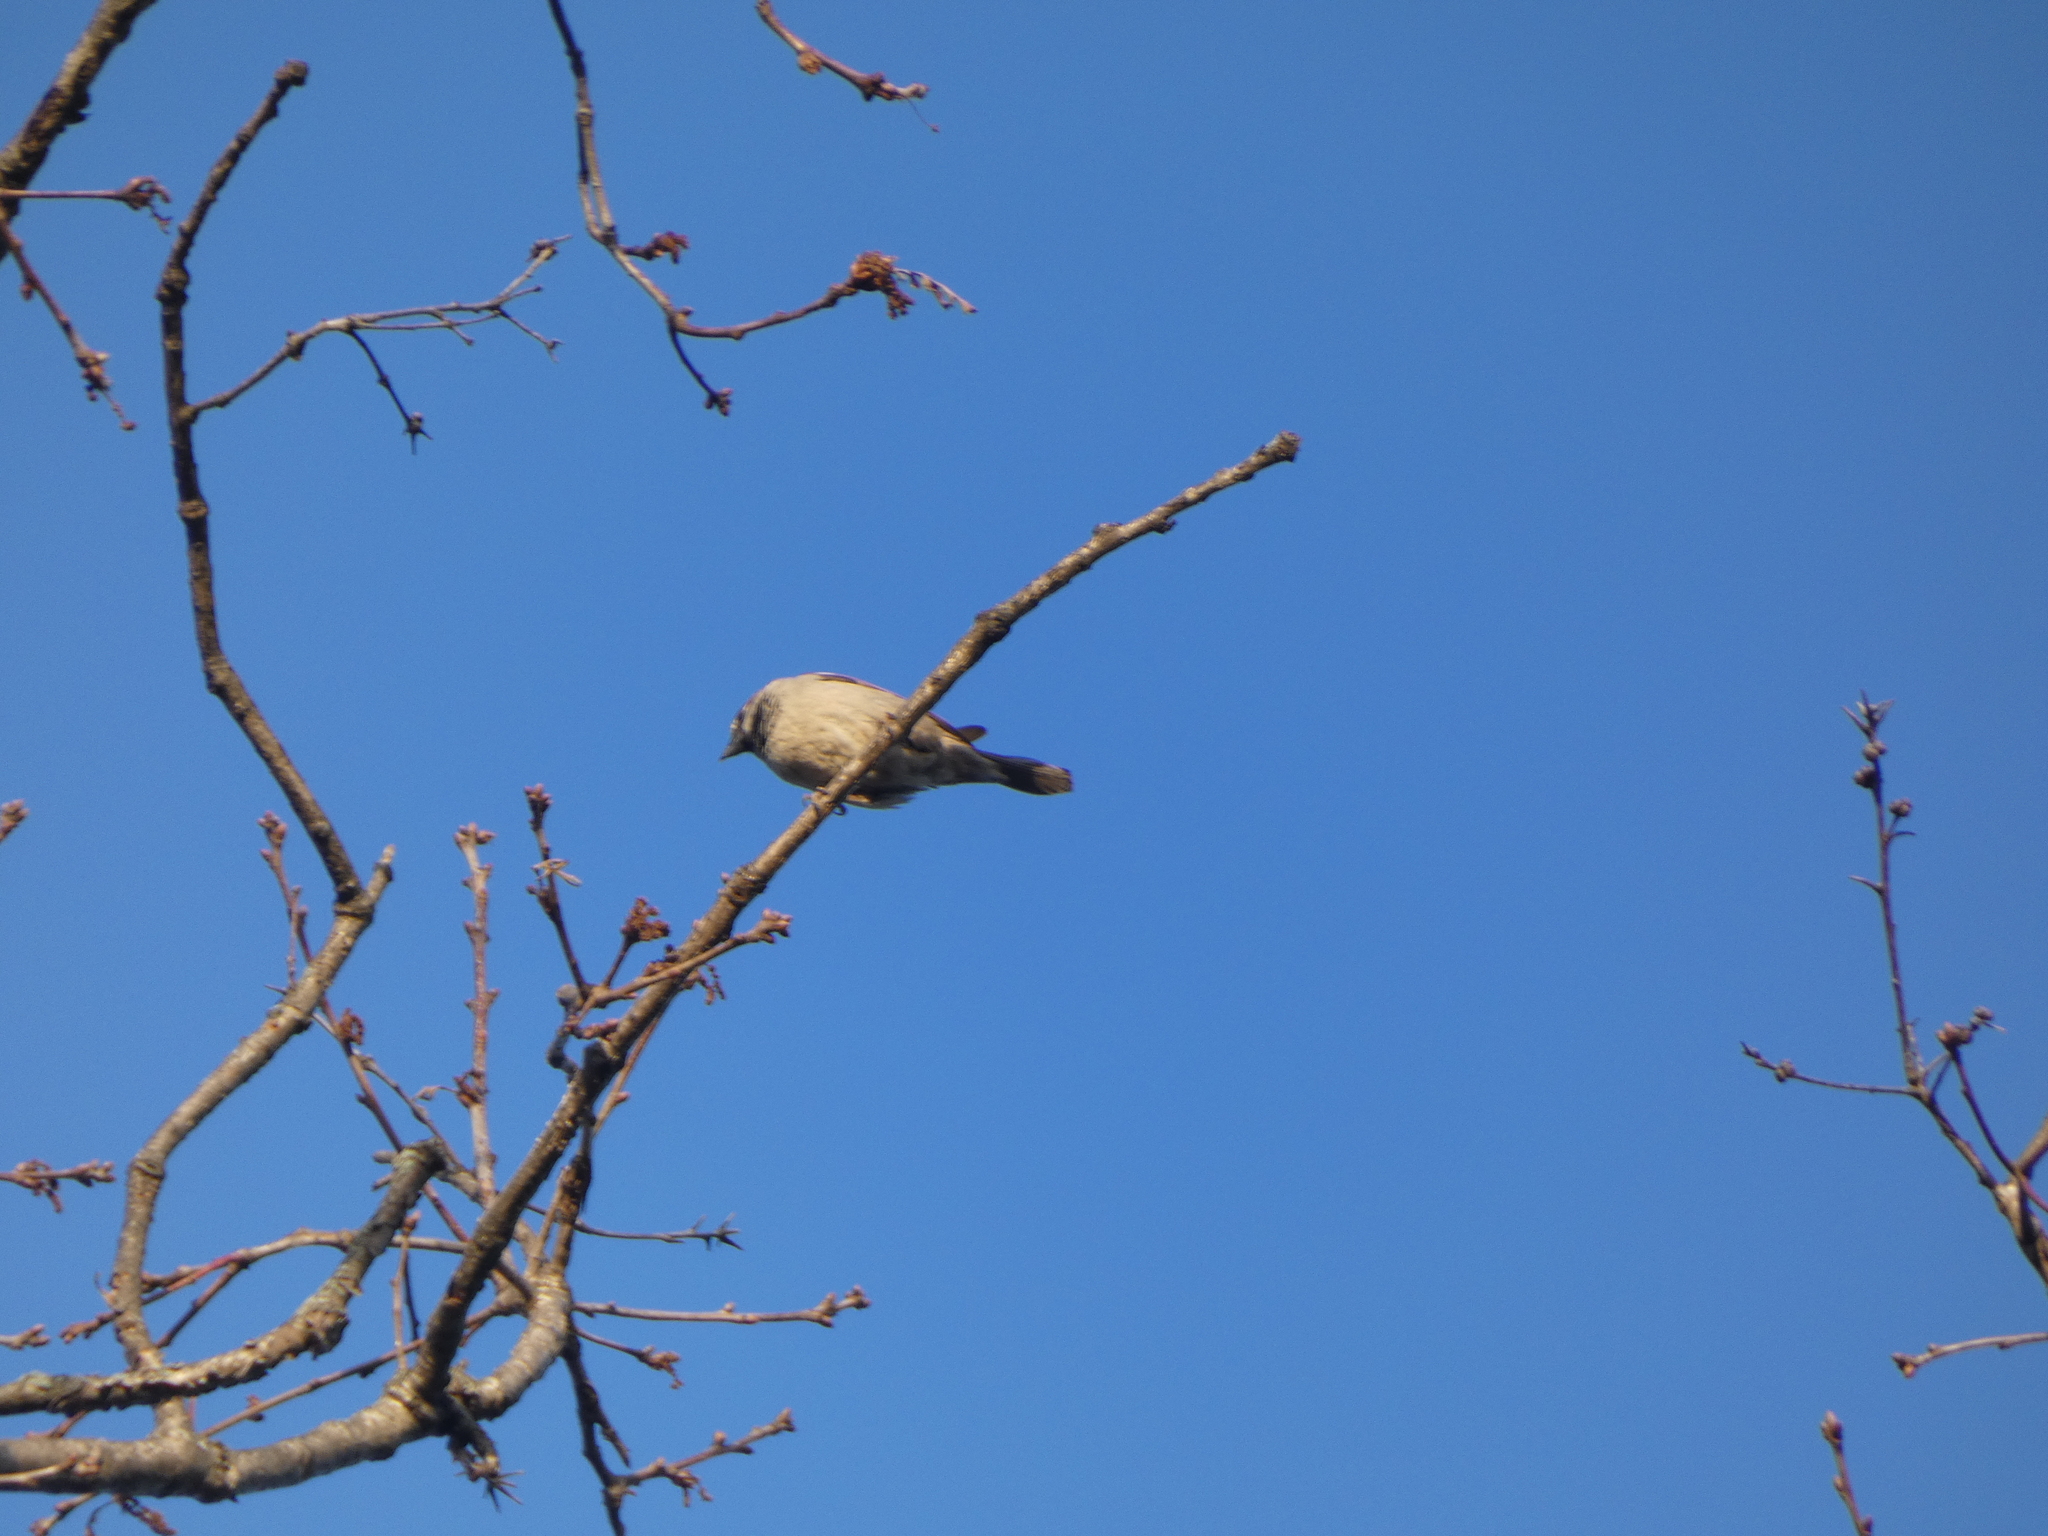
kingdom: Animalia
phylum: Chordata
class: Aves
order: Passeriformes
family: Passeridae
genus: Passer
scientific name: Passer domesticus
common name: House sparrow
